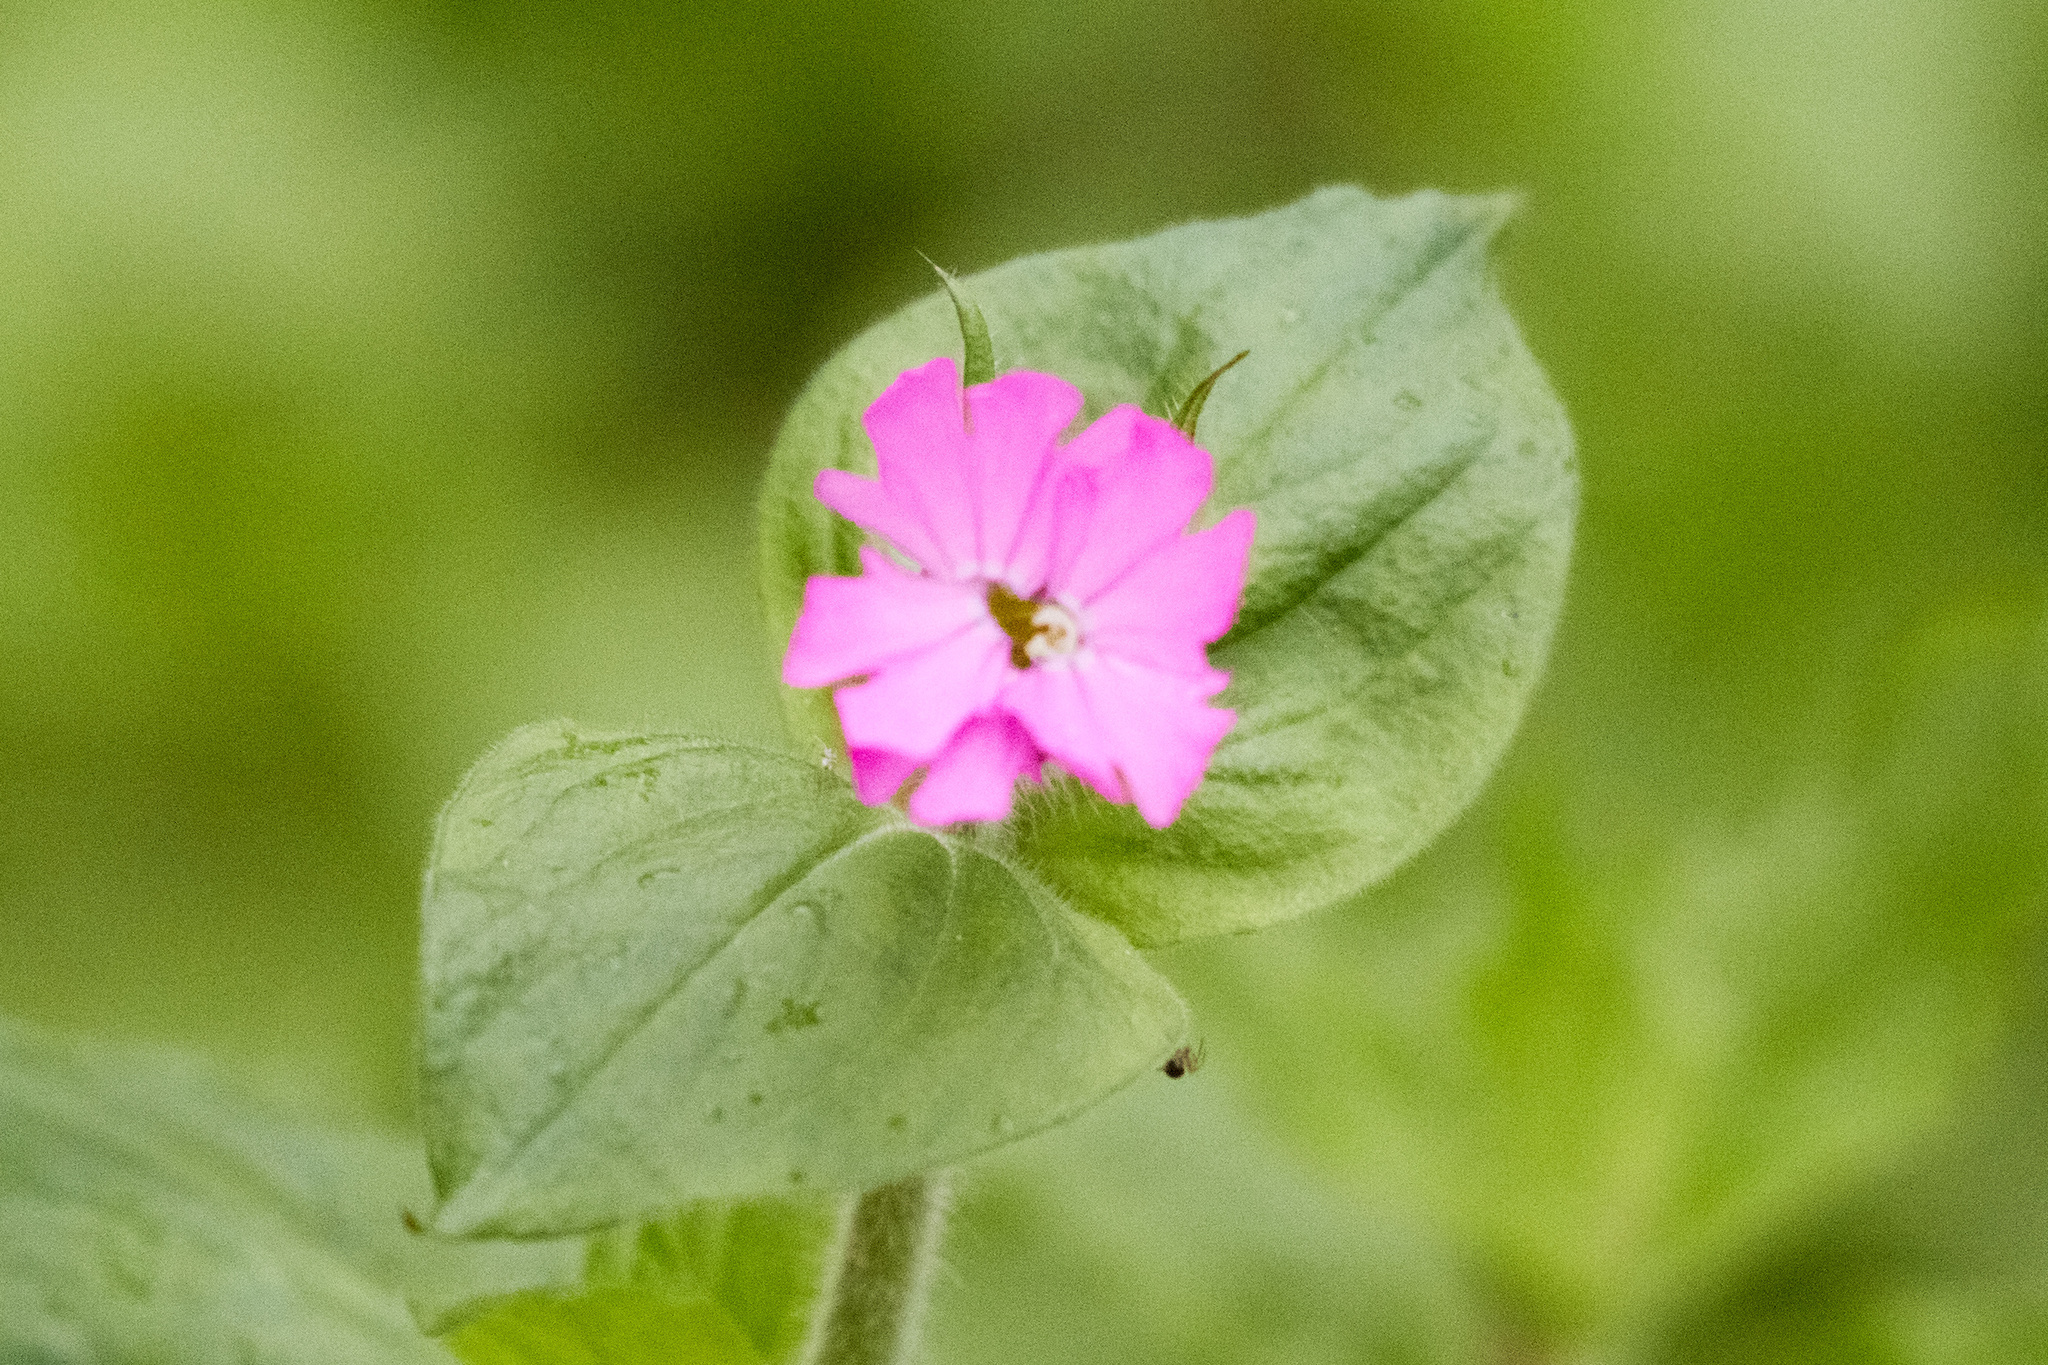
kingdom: Plantae
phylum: Tracheophyta
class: Magnoliopsida
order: Caryophyllales
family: Caryophyllaceae
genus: Silene
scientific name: Silene dioica
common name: Red campion
